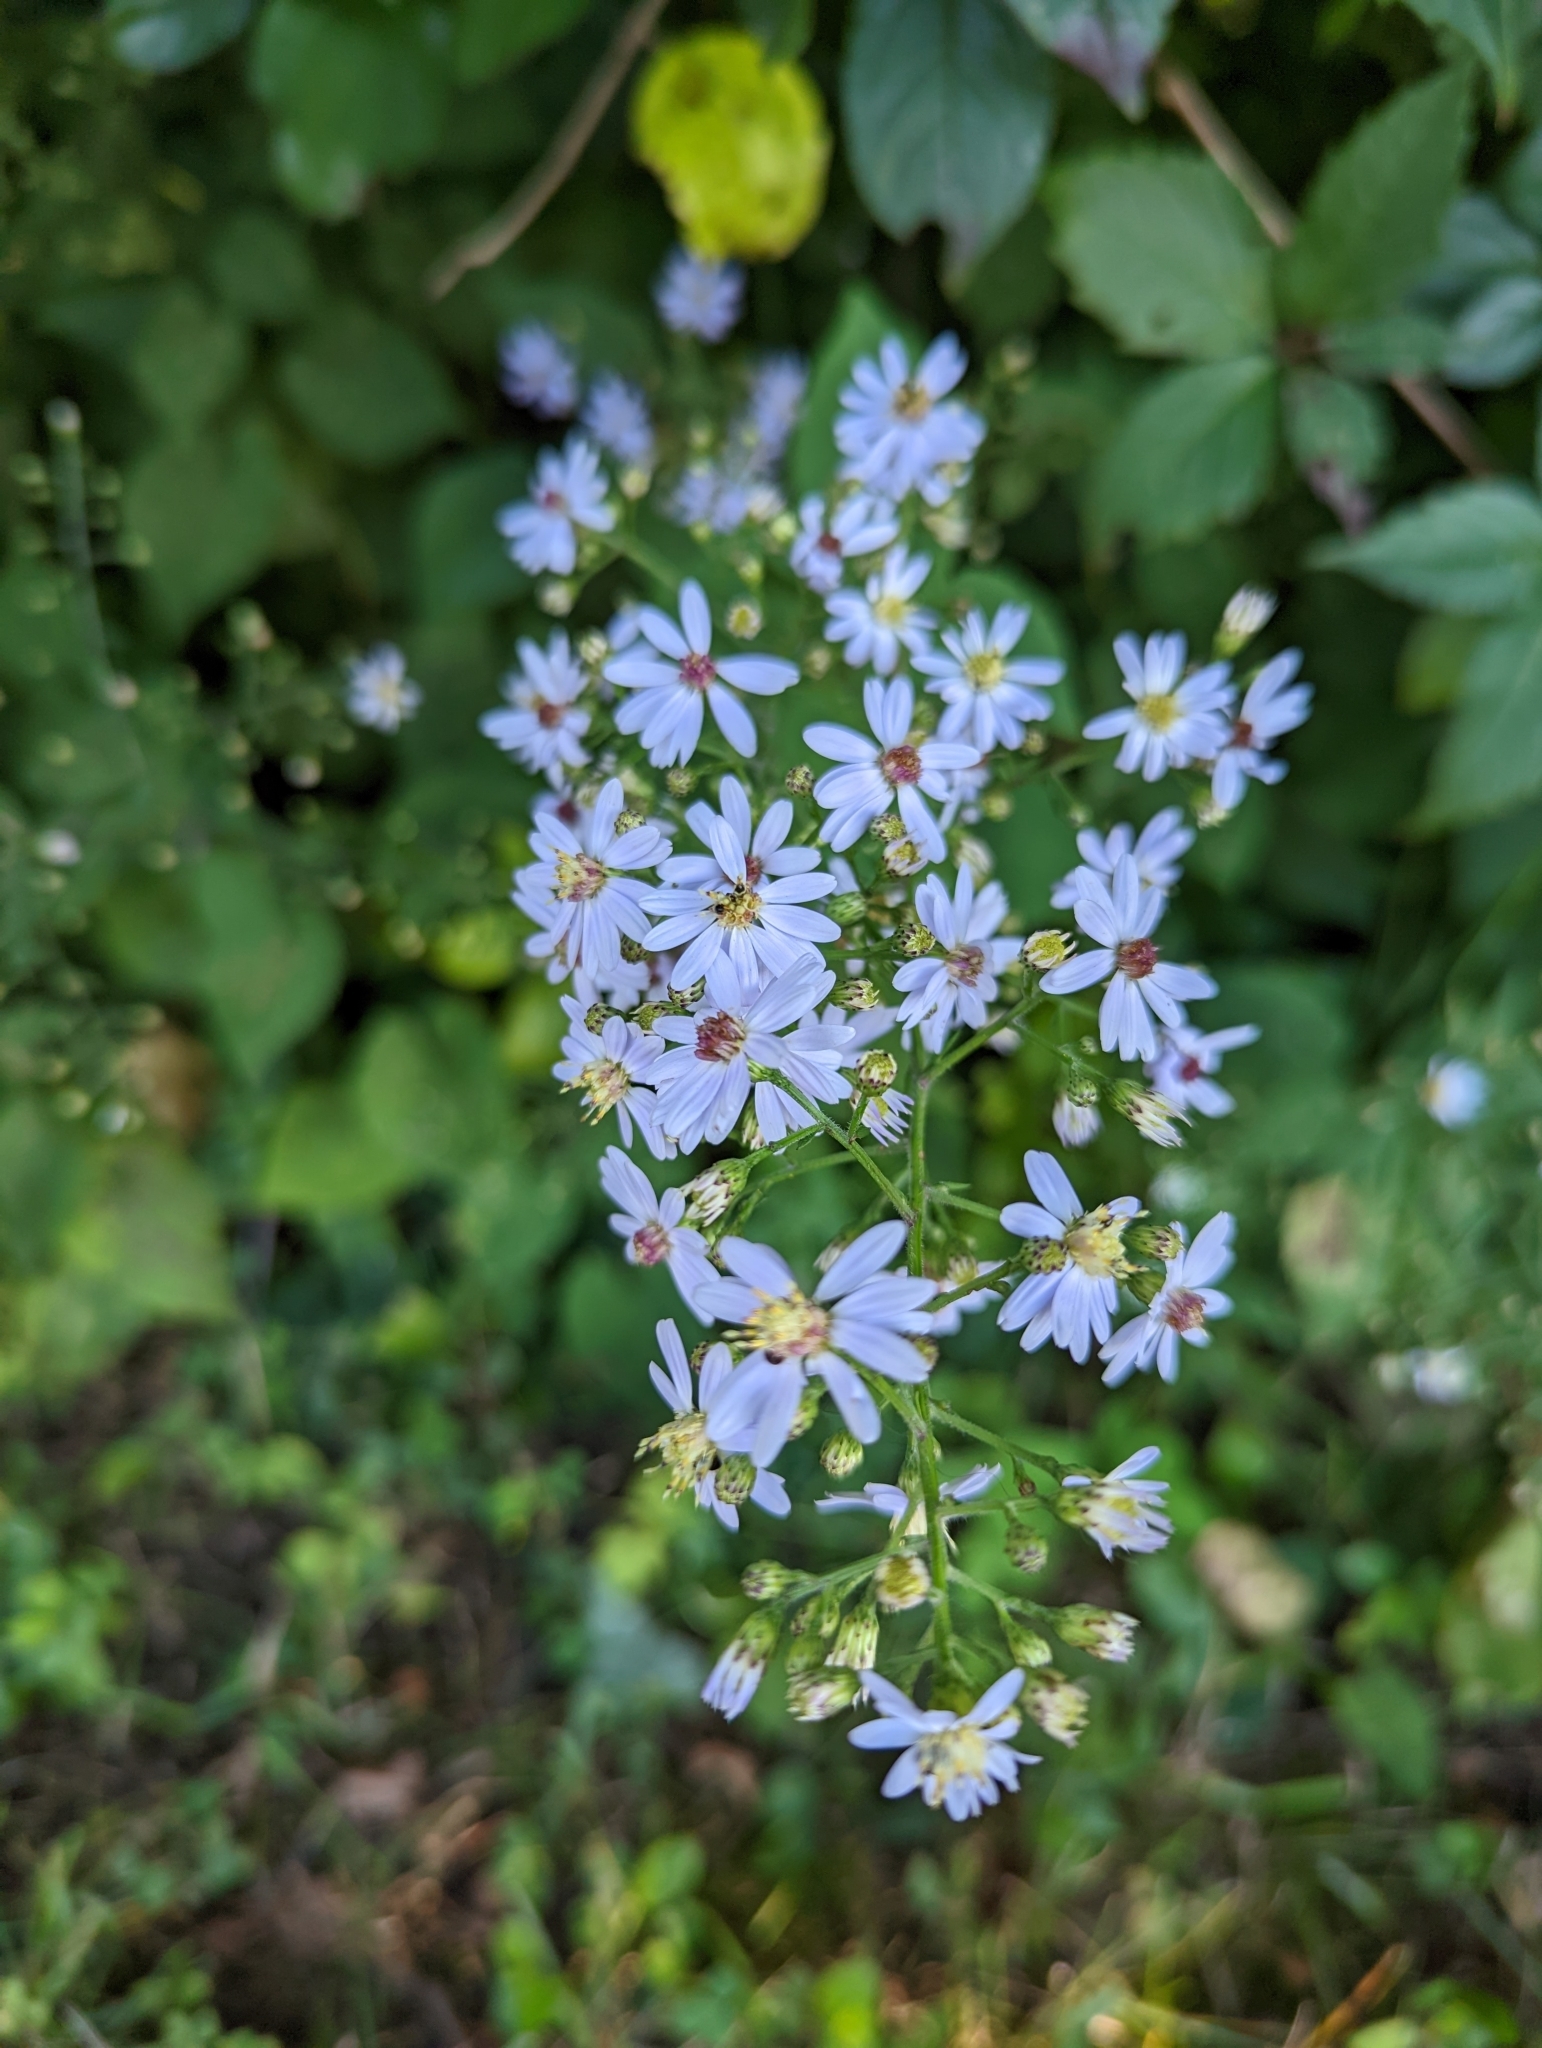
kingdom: Plantae
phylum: Tracheophyta
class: Magnoliopsida
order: Asterales
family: Asteraceae
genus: Symphyotrichum
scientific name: Symphyotrichum cordifolium
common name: Beeweed
